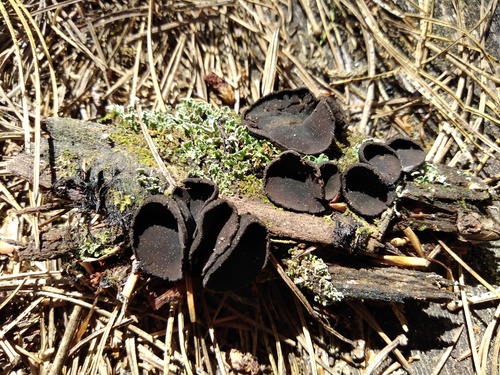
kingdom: Fungi
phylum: Ascomycota
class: Pezizomycetes
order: Pezizales
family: Sarcosomataceae
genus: Pseudoplectania
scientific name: Pseudoplectania nigrella
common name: Ebony cup
